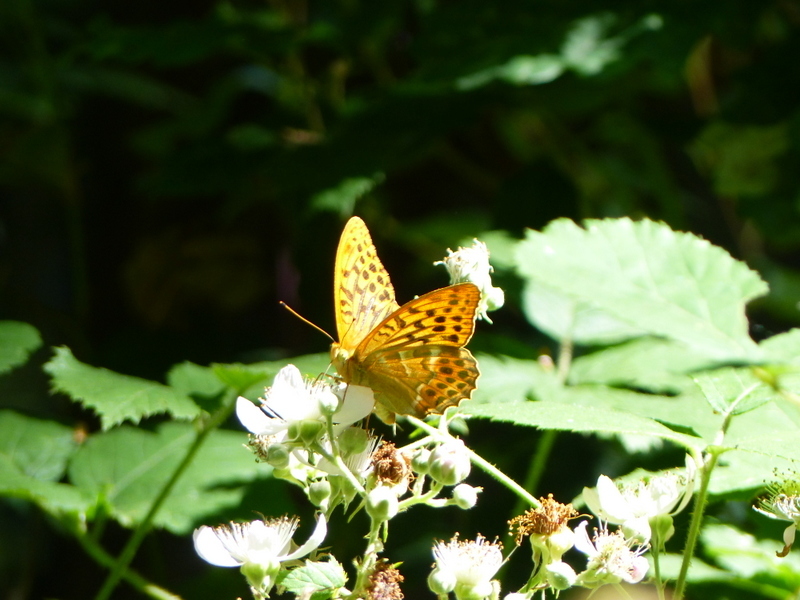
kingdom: Animalia
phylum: Arthropoda
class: Insecta
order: Lepidoptera
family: Nymphalidae
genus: Argynnis
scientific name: Argynnis paphia
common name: Silver-washed fritillary
